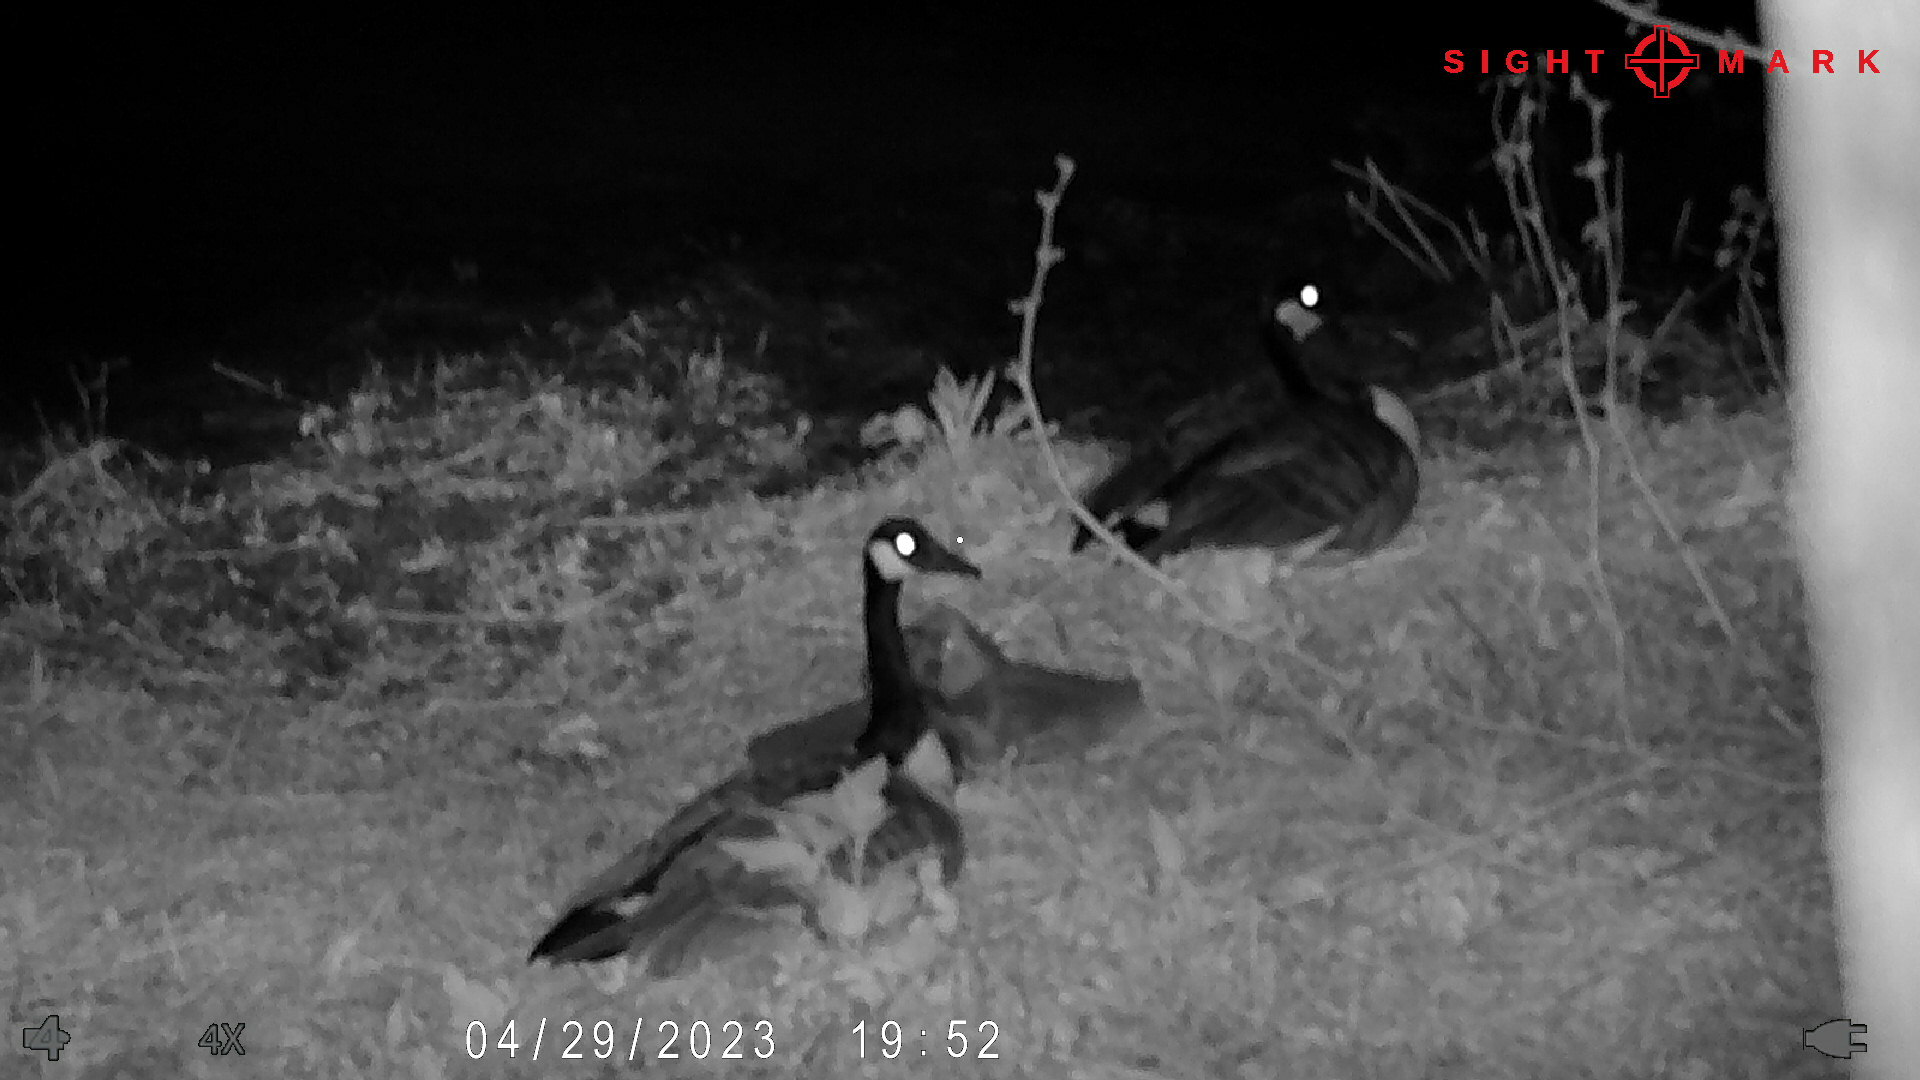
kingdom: Animalia
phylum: Chordata
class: Aves
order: Anseriformes
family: Anatidae
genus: Branta
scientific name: Branta canadensis
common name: Canada goose
